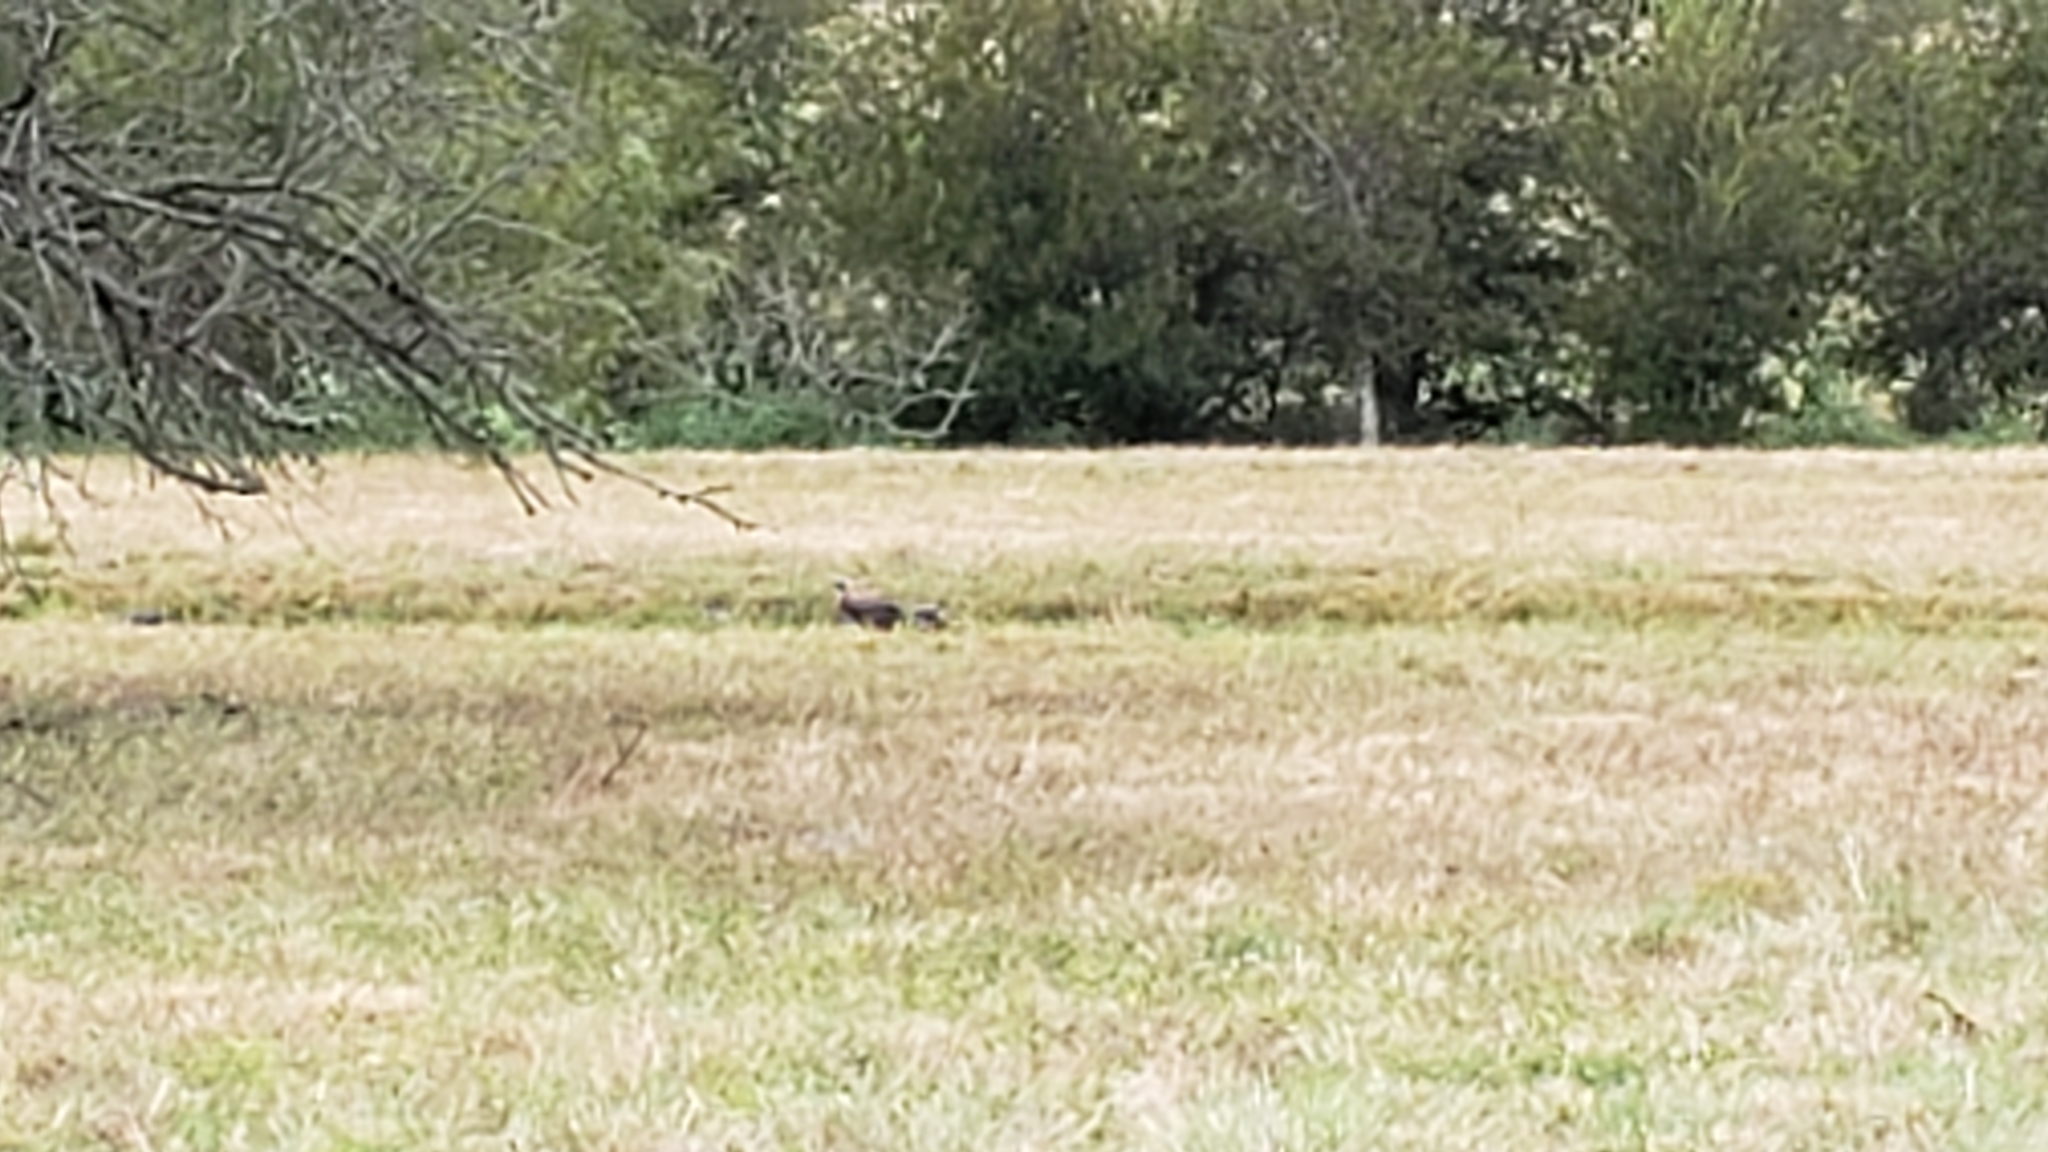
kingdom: Animalia
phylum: Chordata
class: Aves
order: Galliformes
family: Phasianidae
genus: Meleagris
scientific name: Meleagris gallopavo
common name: Wild turkey
